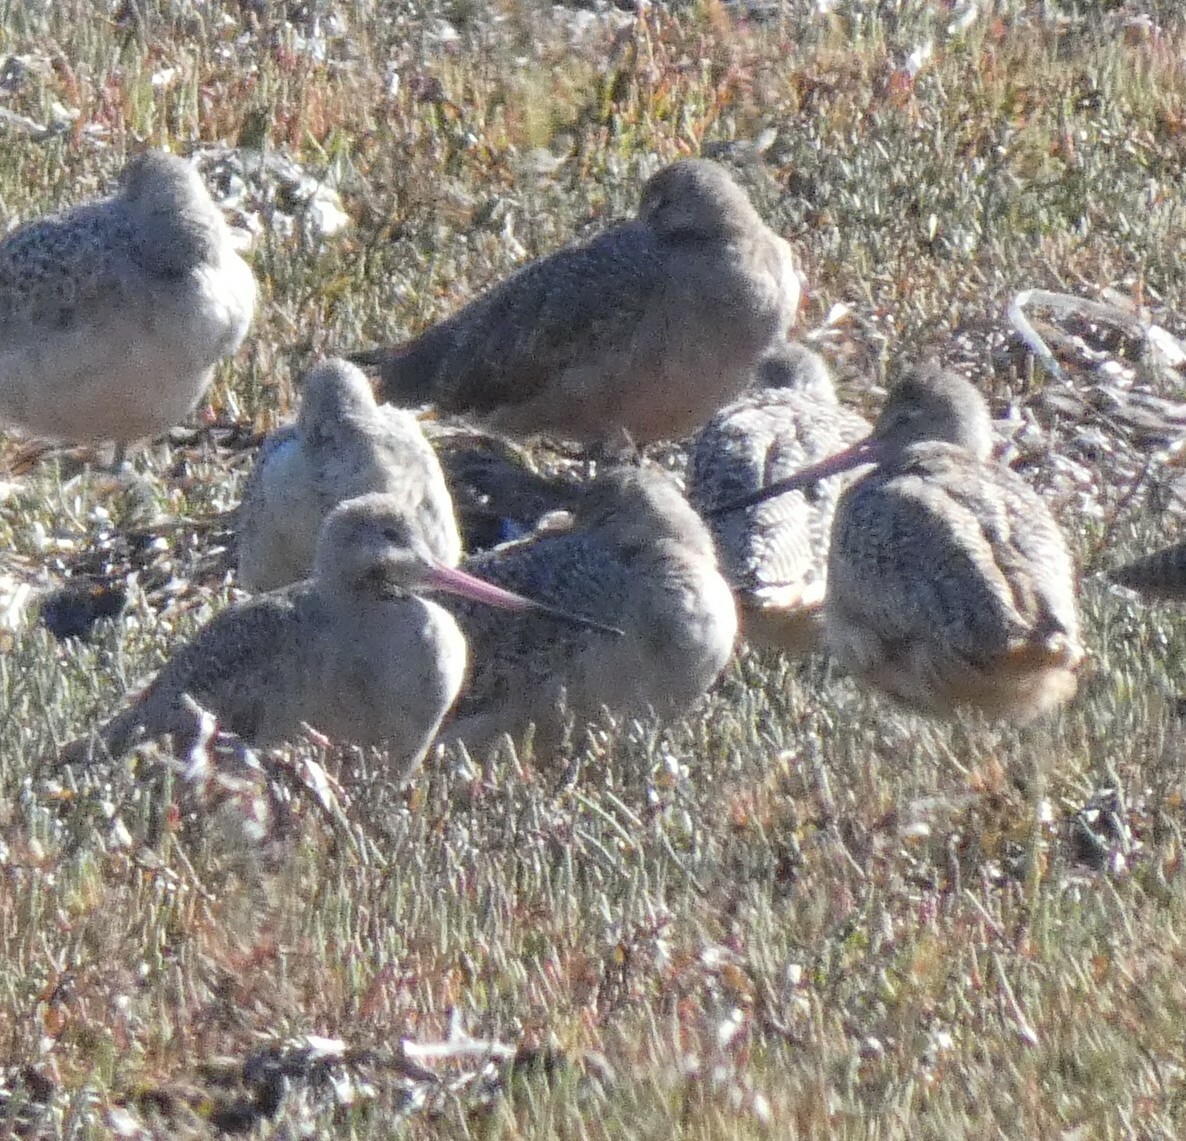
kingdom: Animalia
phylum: Chordata
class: Aves
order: Charadriiformes
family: Scolopacidae
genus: Limosa
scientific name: Limosa fedoa
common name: Marbled godwit
